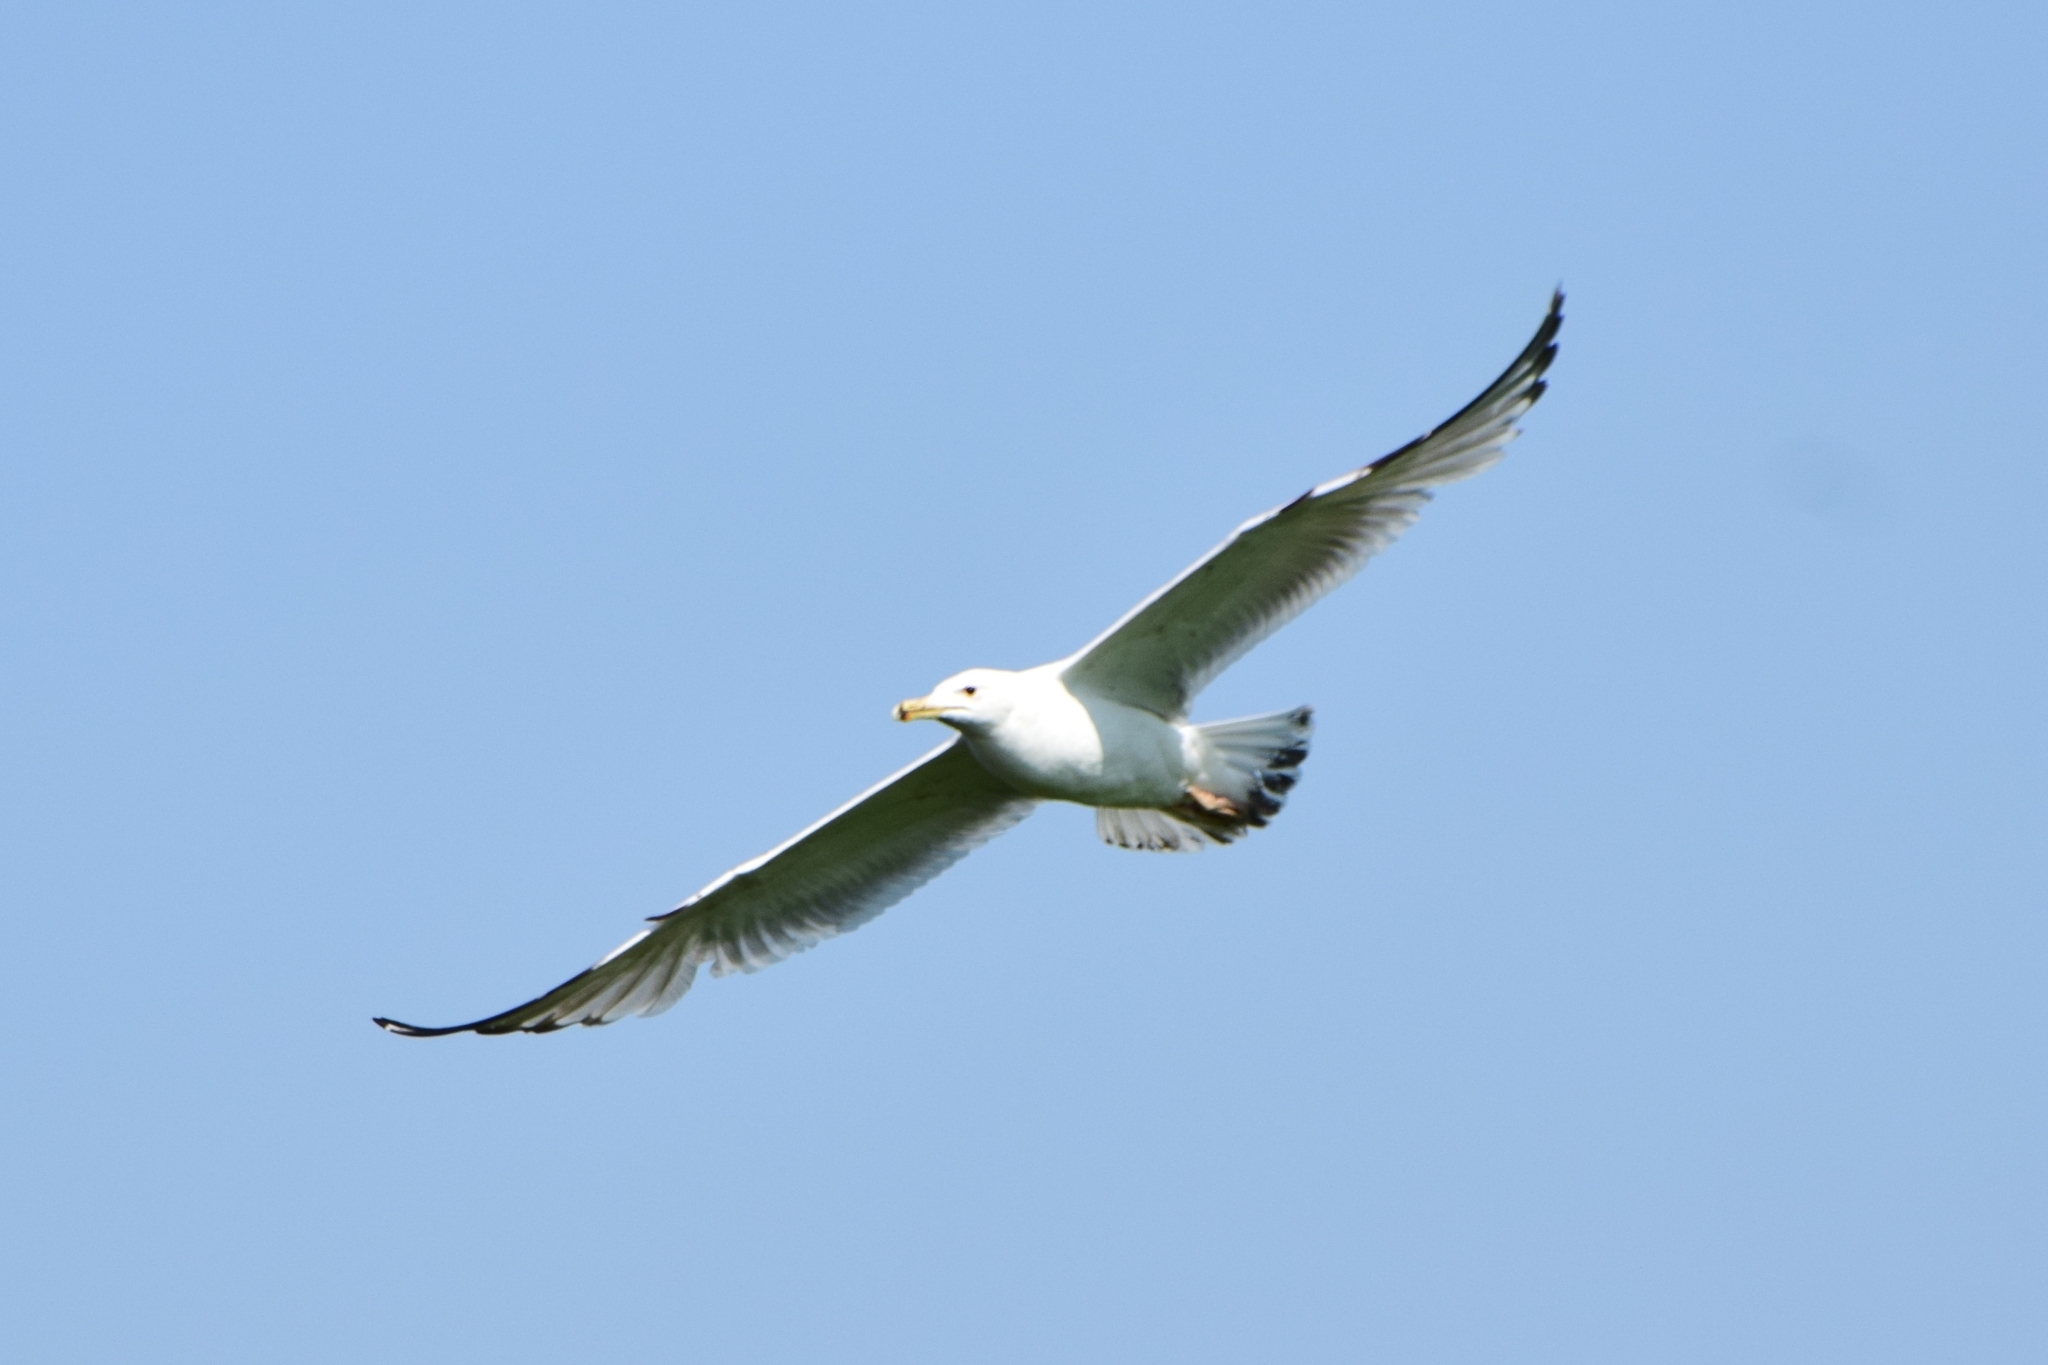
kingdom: Animalia
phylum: Chordata
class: Aves
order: Charadriiformes
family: Laridae
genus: Larus
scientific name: Larus cachinnans
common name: Caspian gull
